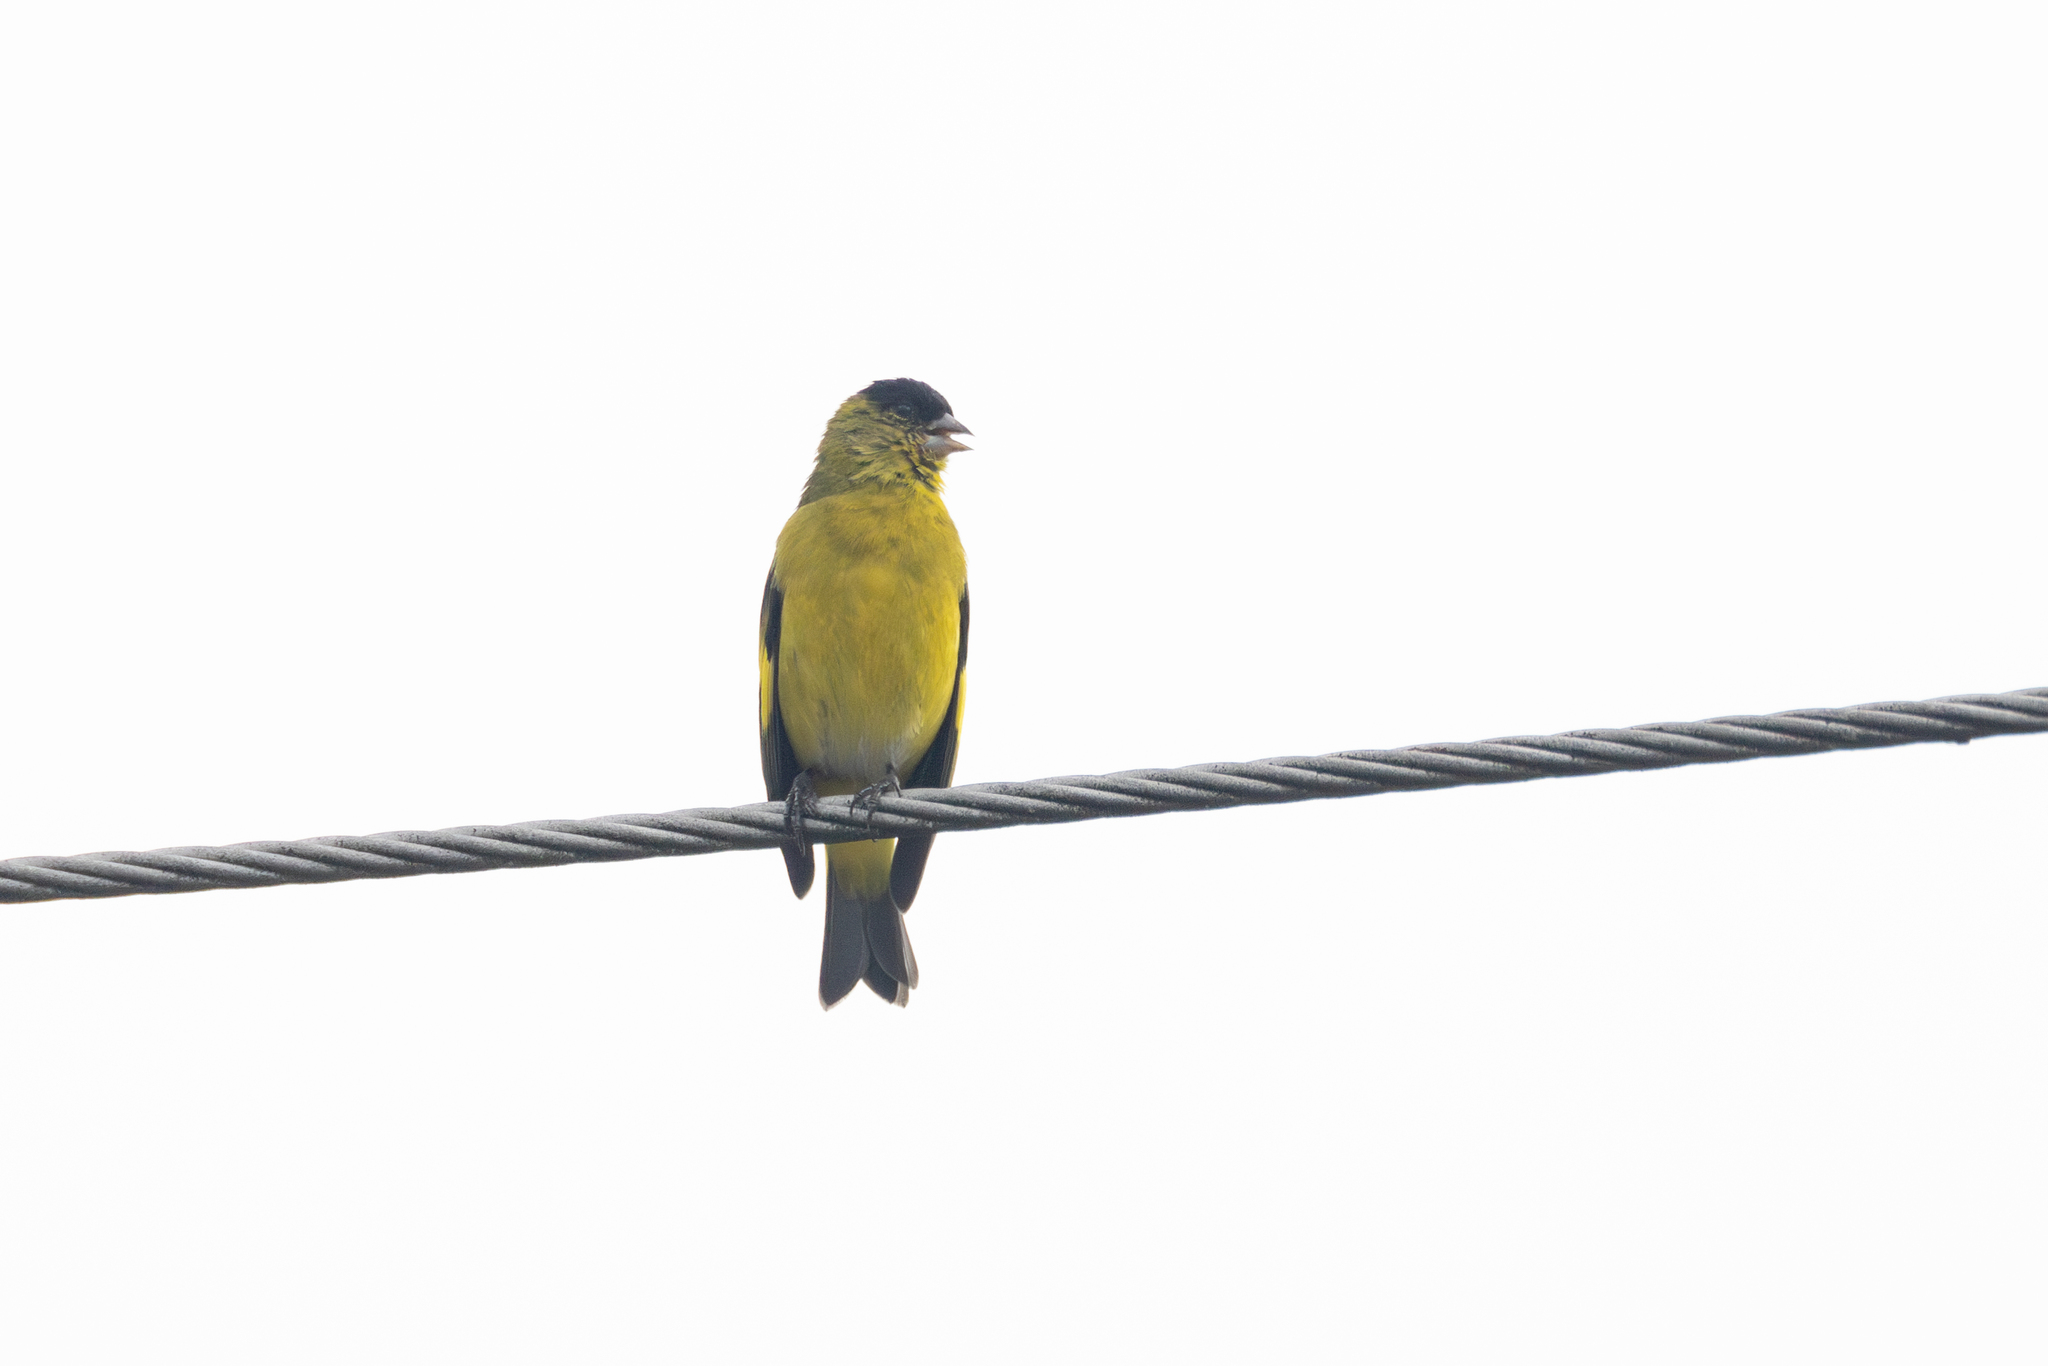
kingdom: Animalia
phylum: Chordata
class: Aves
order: Passeriformes
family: Fringillidae
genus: Spinus
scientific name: Spinus spinescens
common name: Andean siskin
